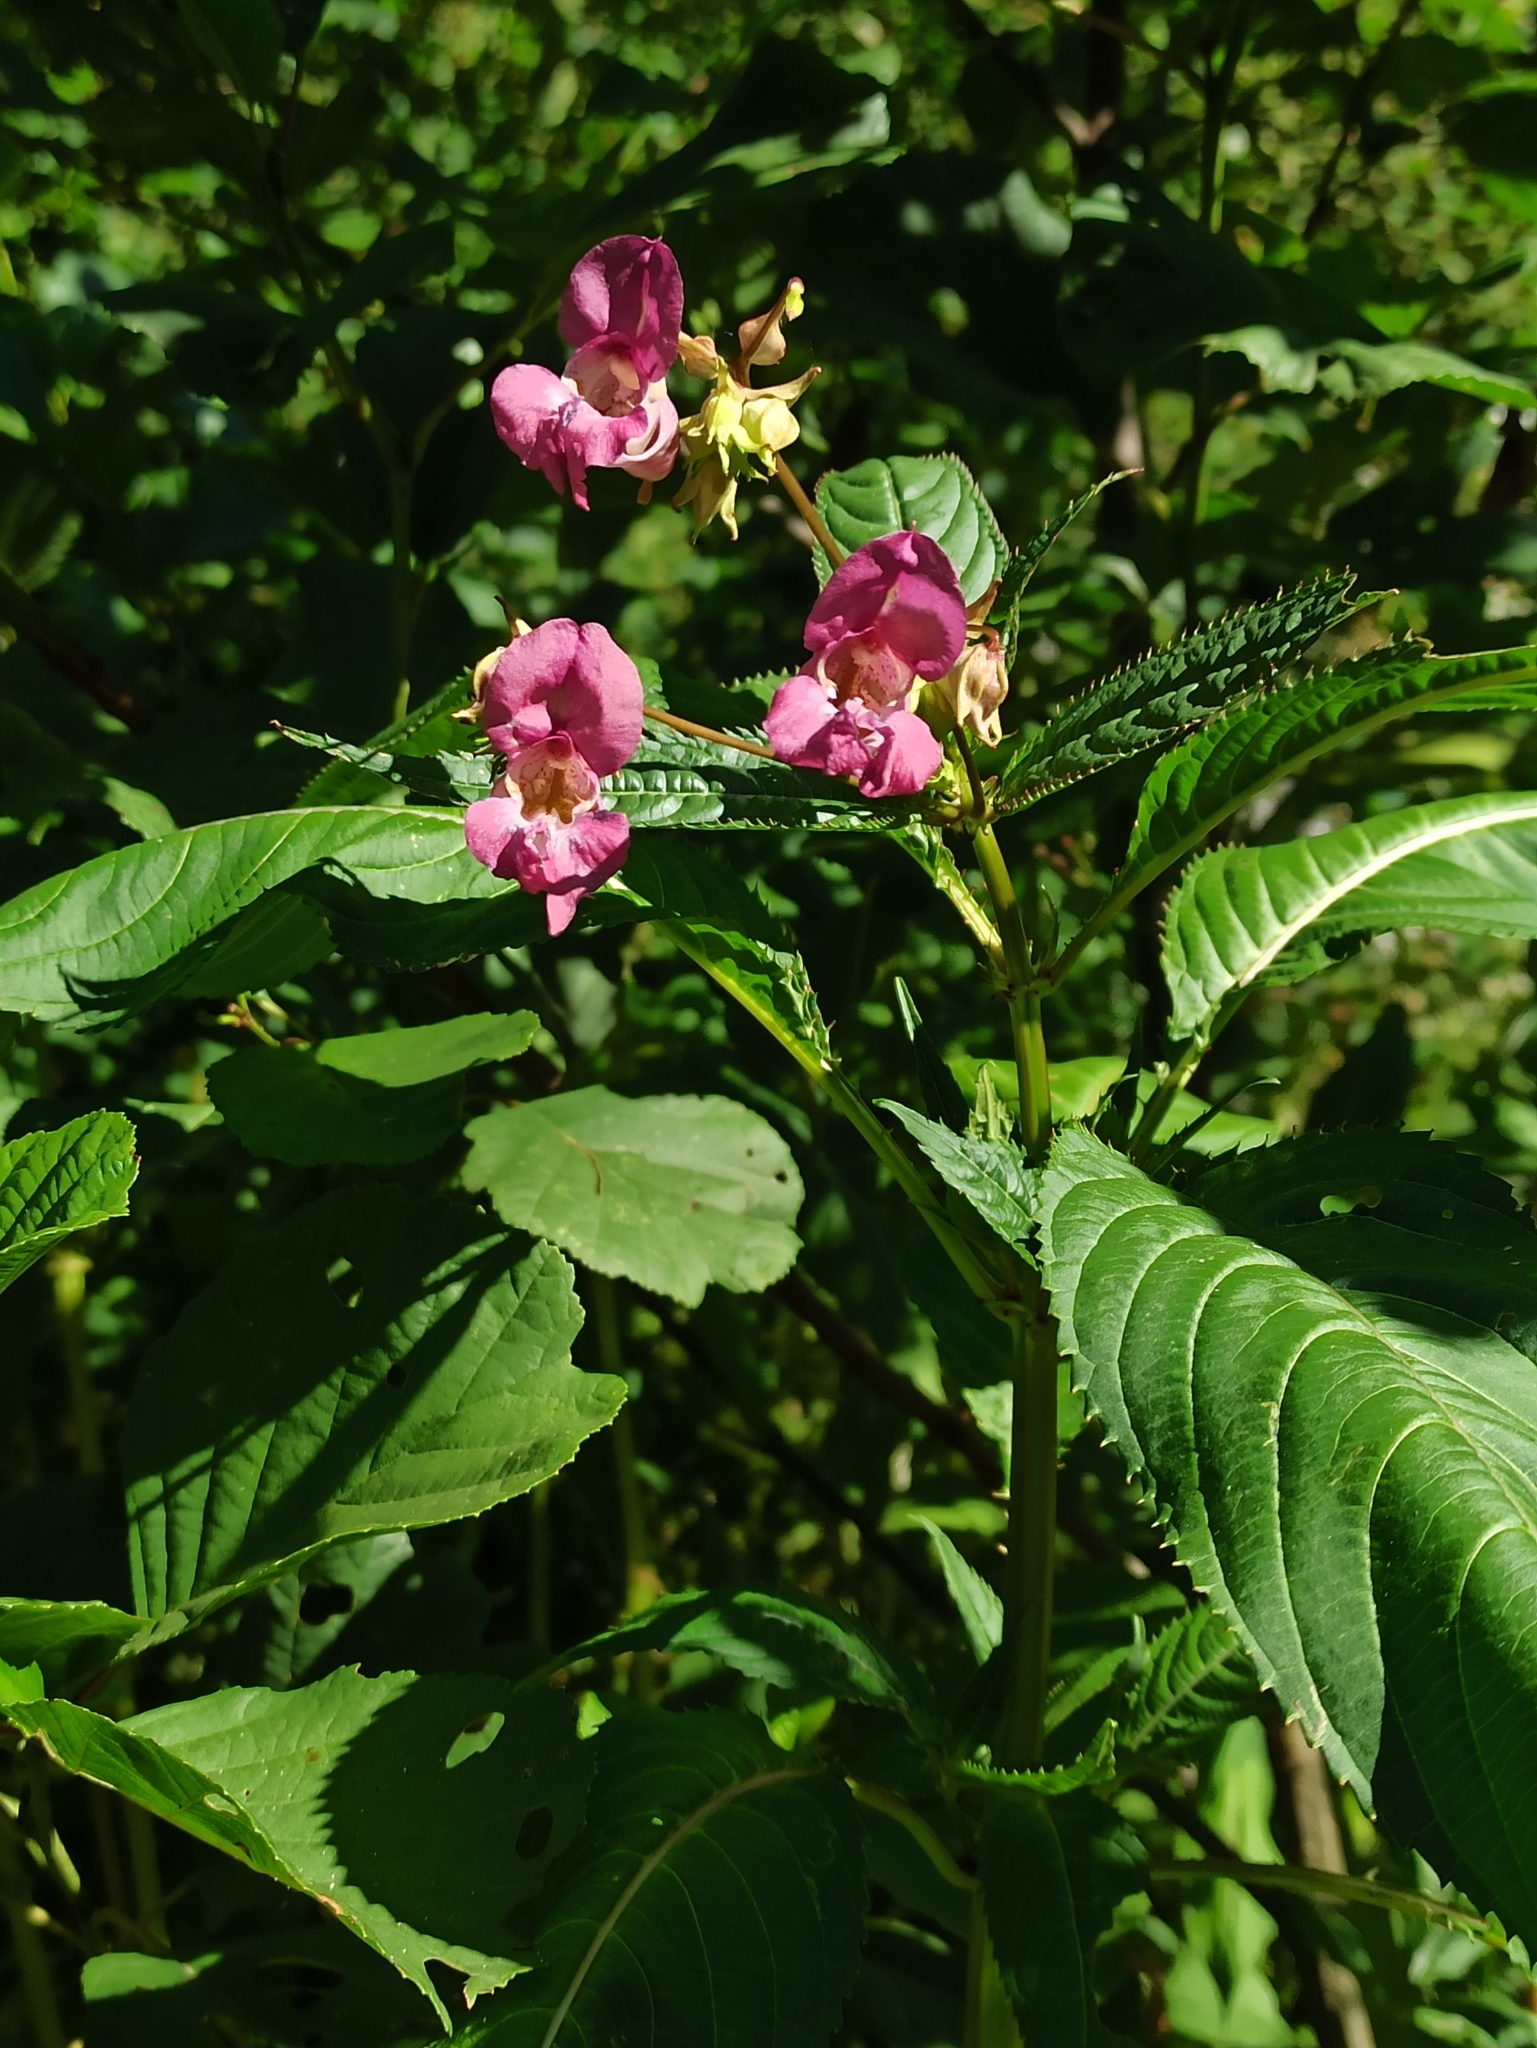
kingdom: Plantae
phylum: Tracheophyta
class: Magnoliopsida
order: Ericales
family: Balsaminaceae
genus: Impatiens
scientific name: Impatiens glandulifera
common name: Himalayan balsam
